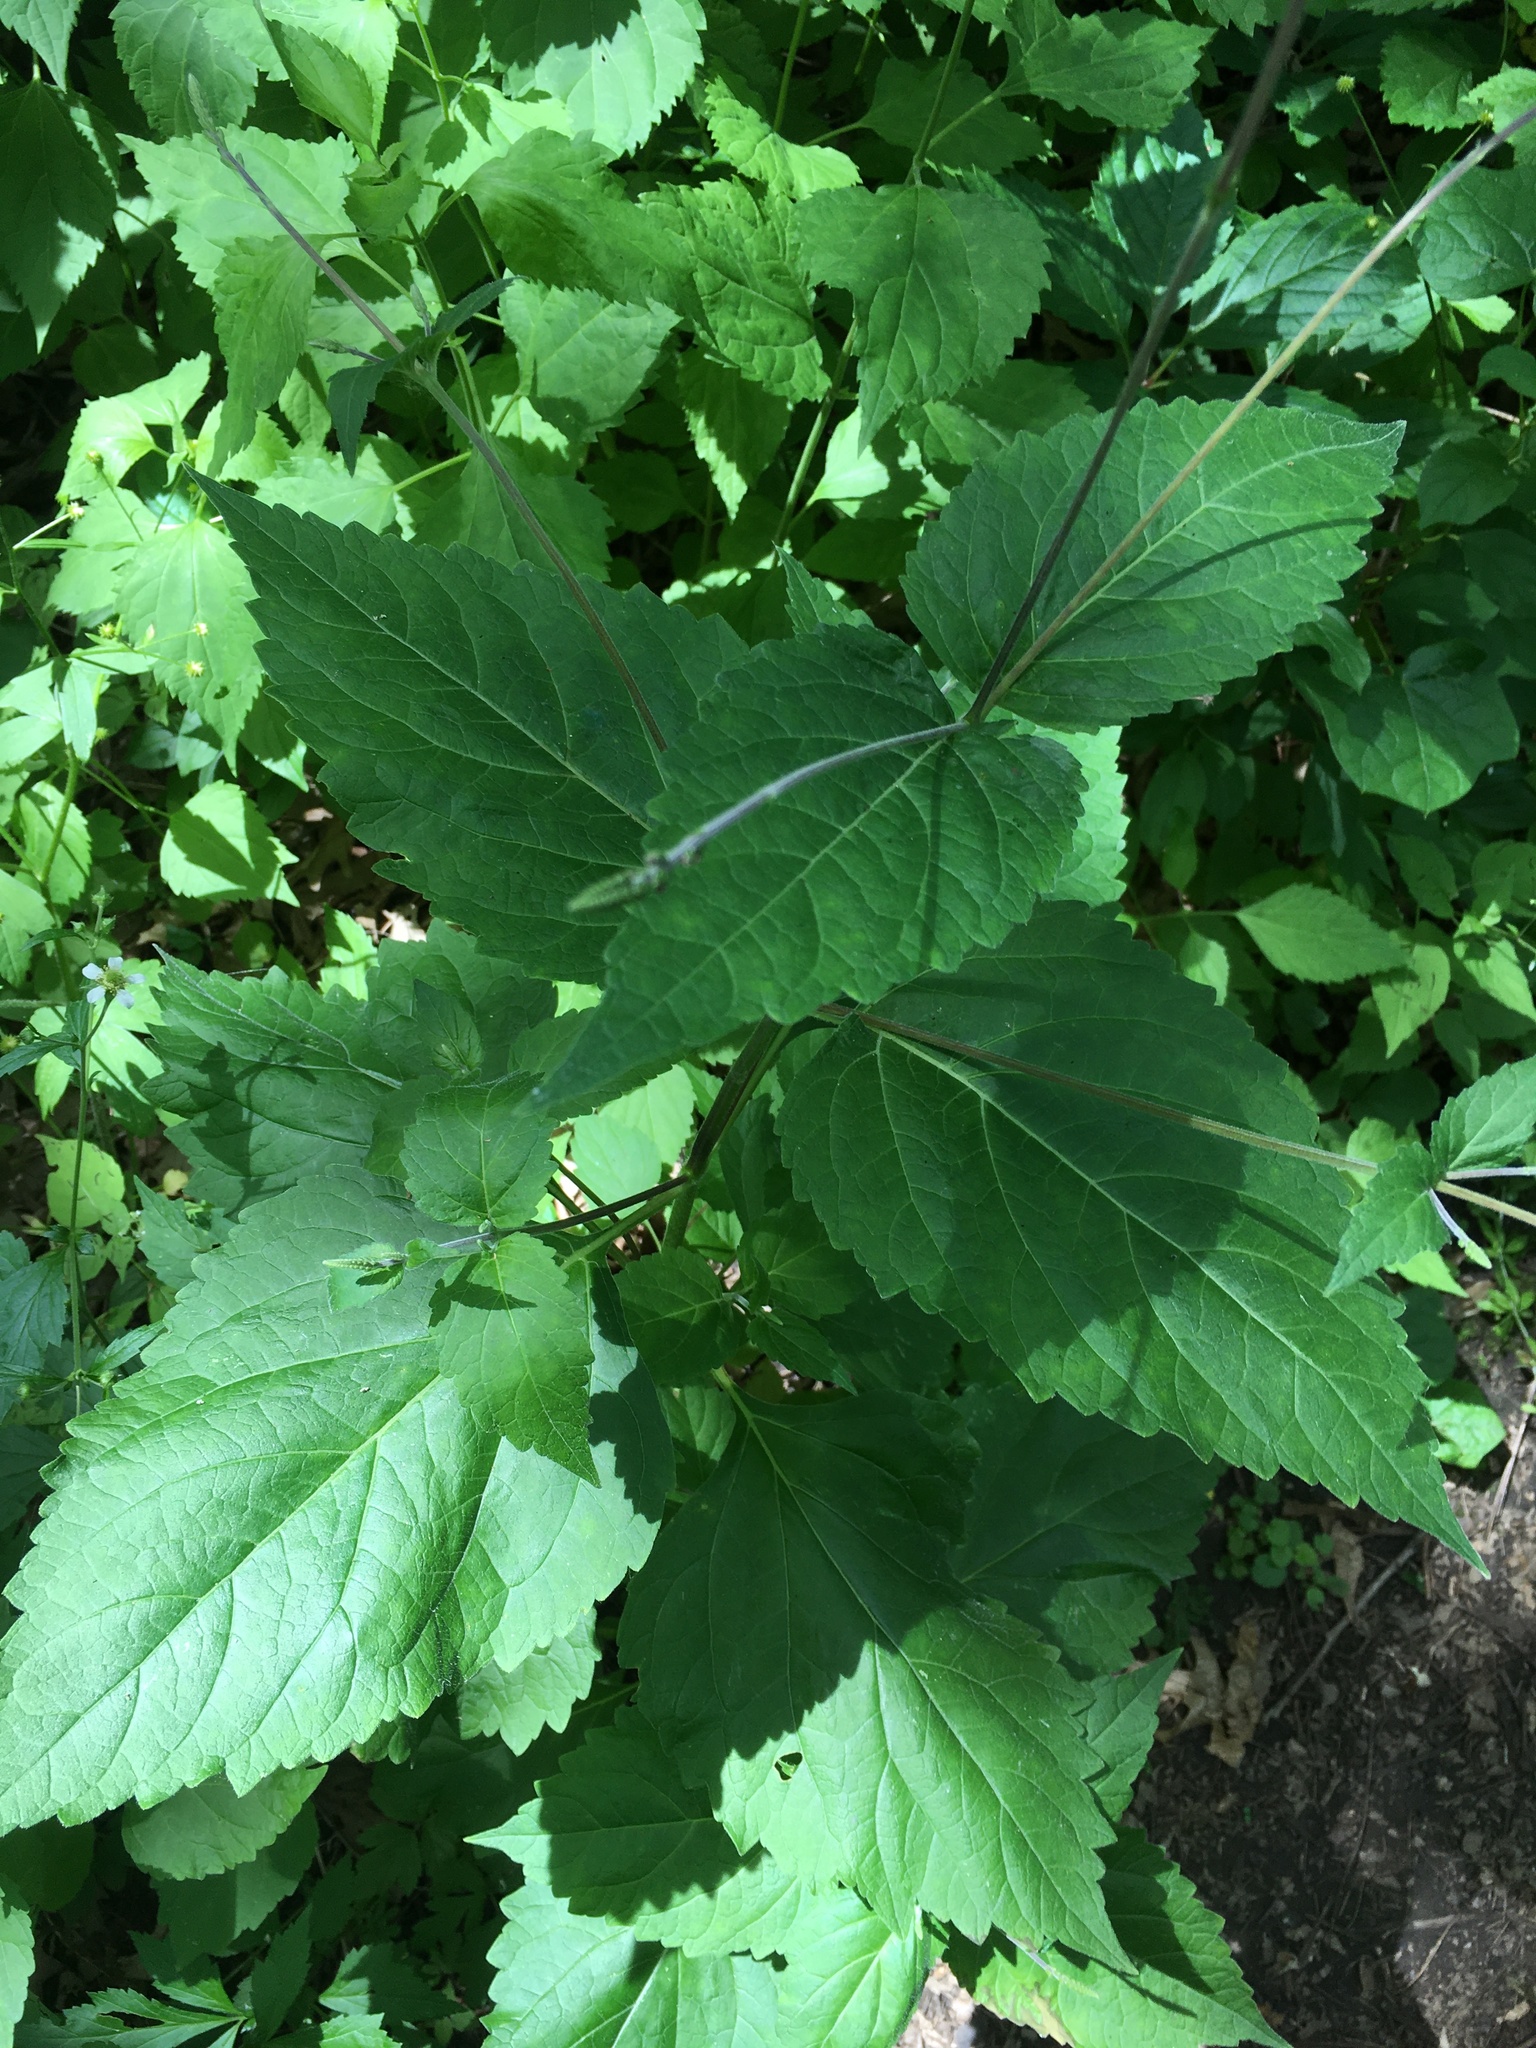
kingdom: Plantae
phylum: Tracheophyta
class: Magnoliopsida
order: Lamiales
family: Phrymaceae
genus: Phryma
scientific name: Phryma leptostachya
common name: American lopseed
